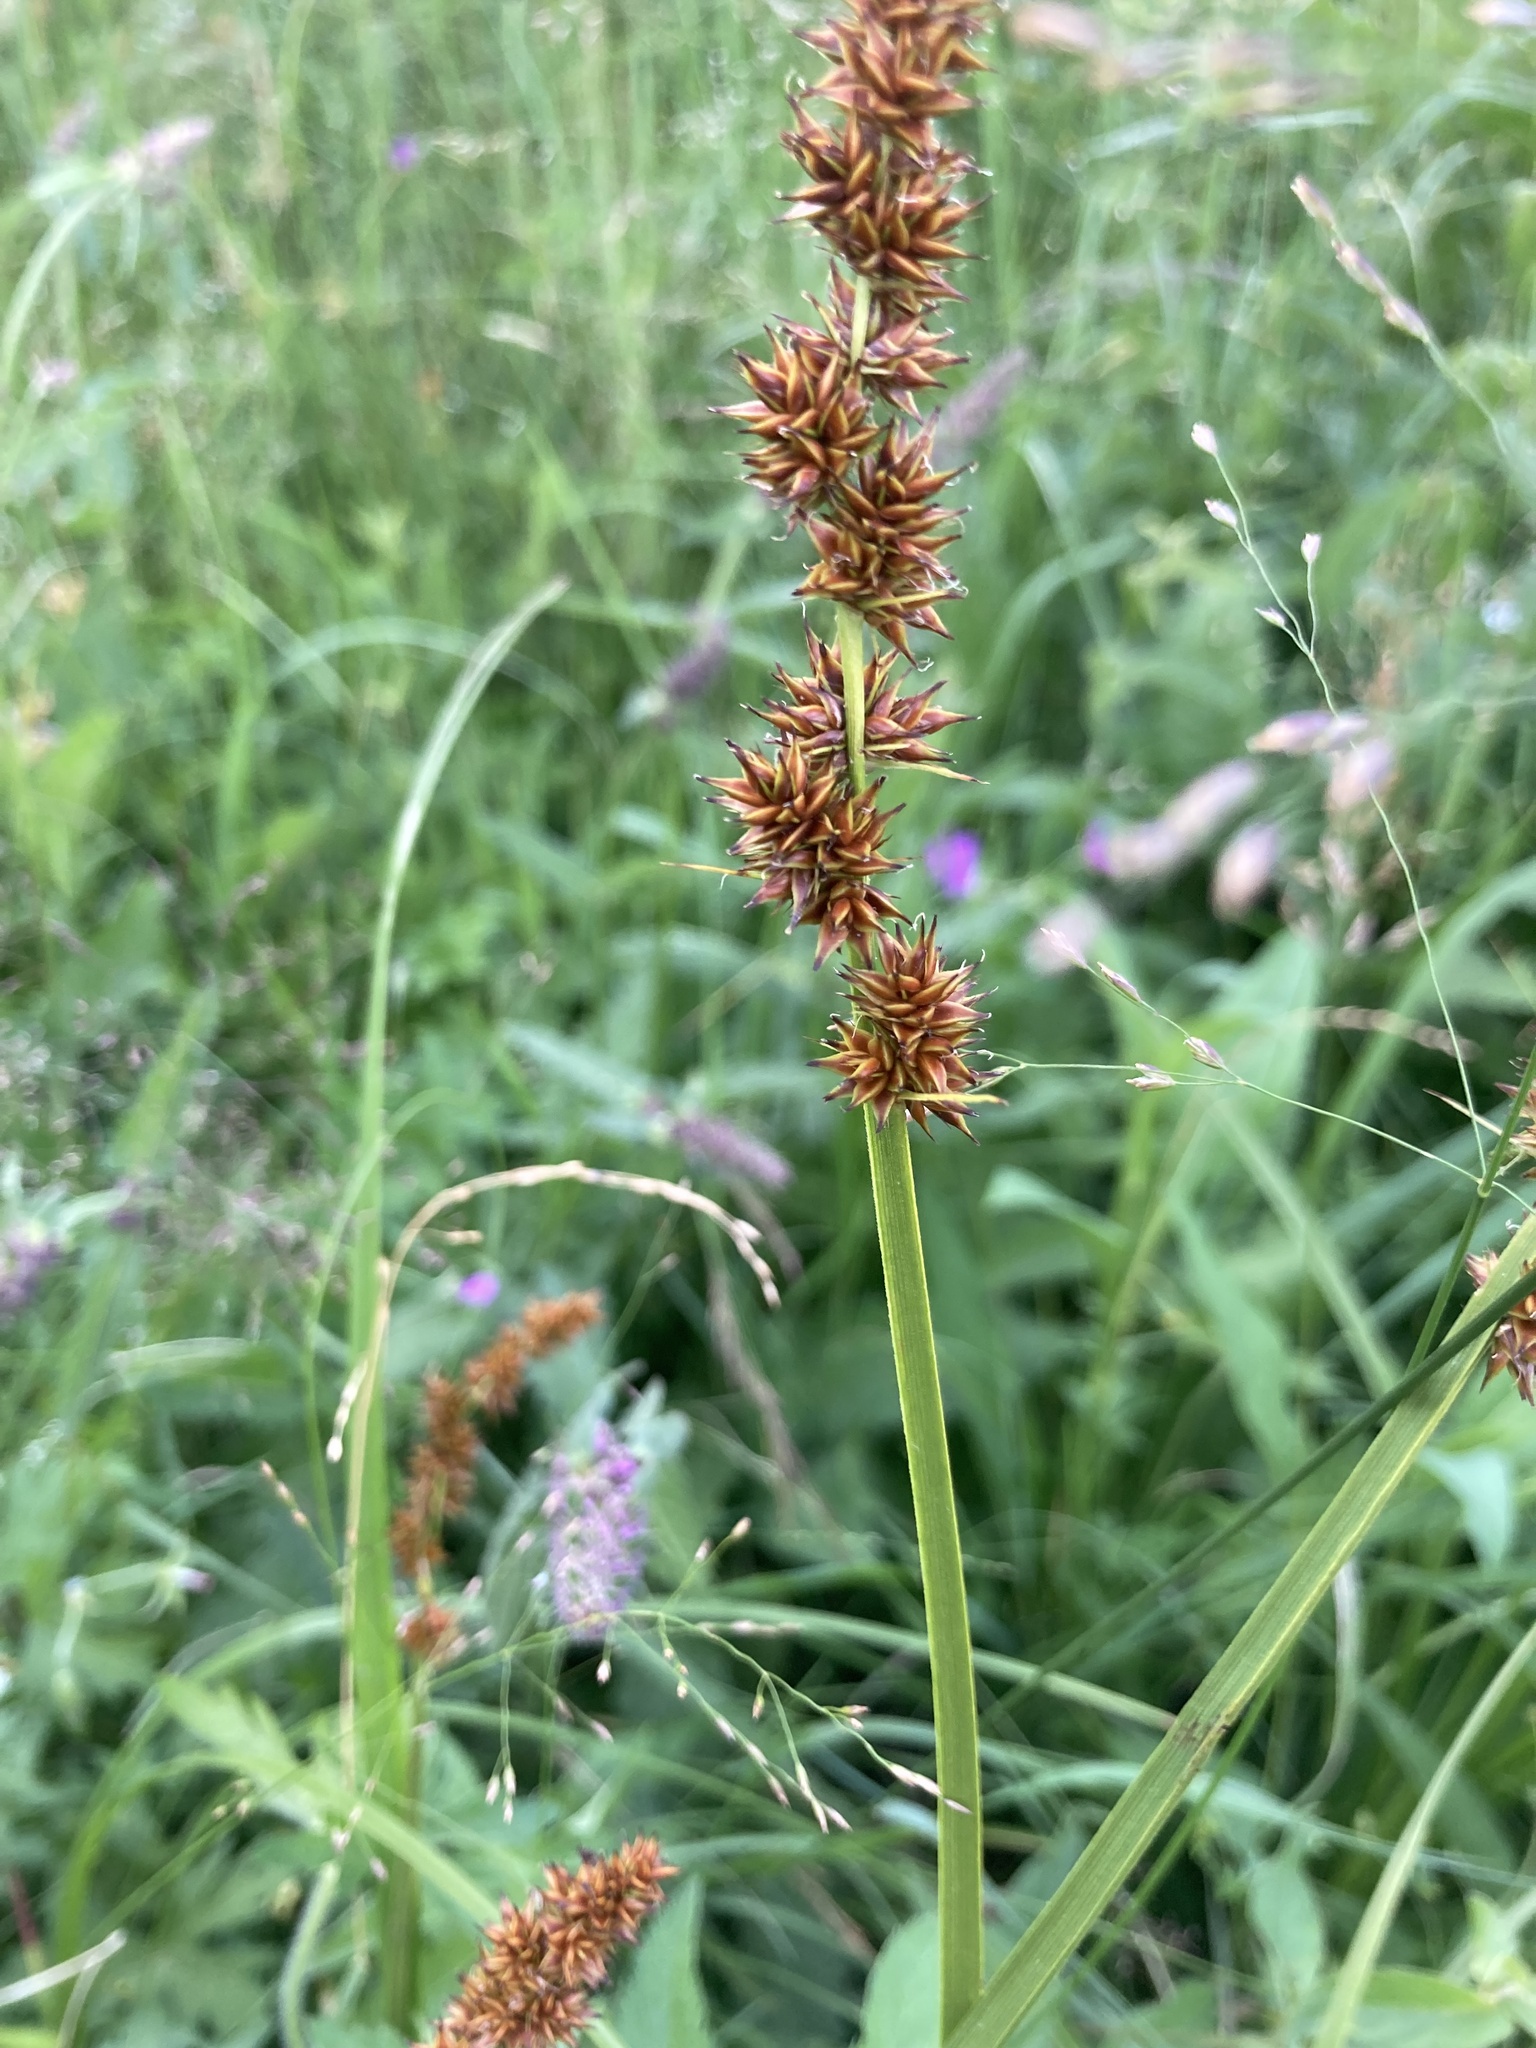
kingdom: Plantae
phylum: Tracheophyta
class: Liliopsida
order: Poales
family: Cyperaceae
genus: Carex
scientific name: Carex vulpina
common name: True fox-sedge
